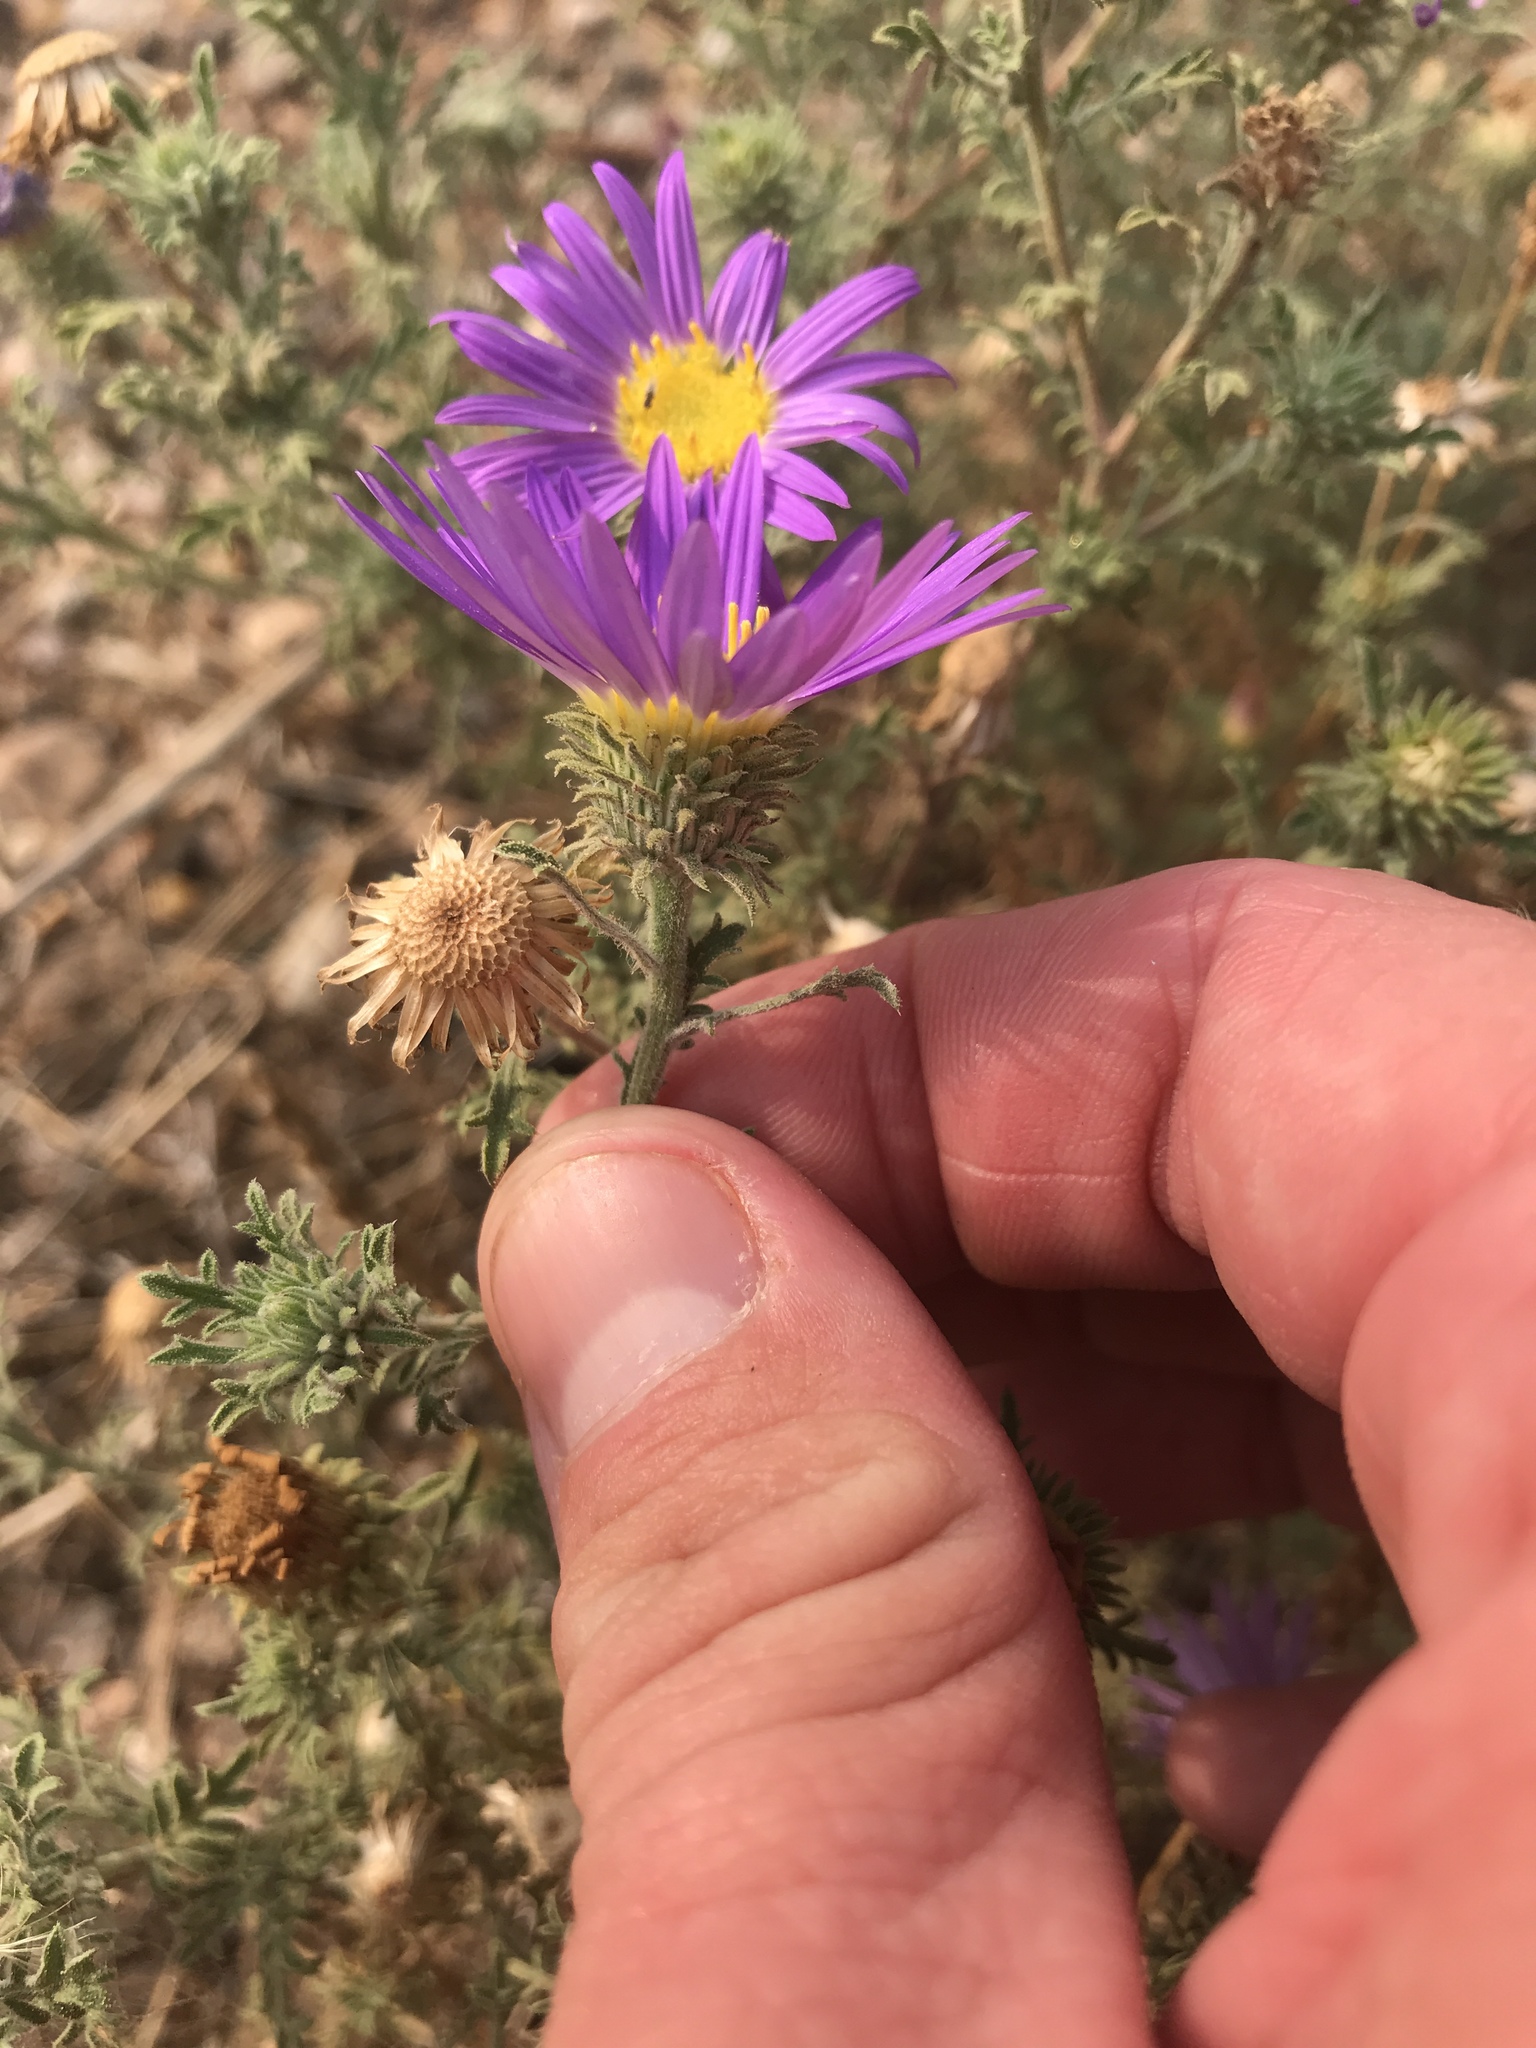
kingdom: Plantae
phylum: Tracheophyta
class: Magnoliopsida
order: Asterales
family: Asteraceae
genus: Machaeranthera
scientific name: Machaeranthera tanacetifolia
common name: Tansy-aster
